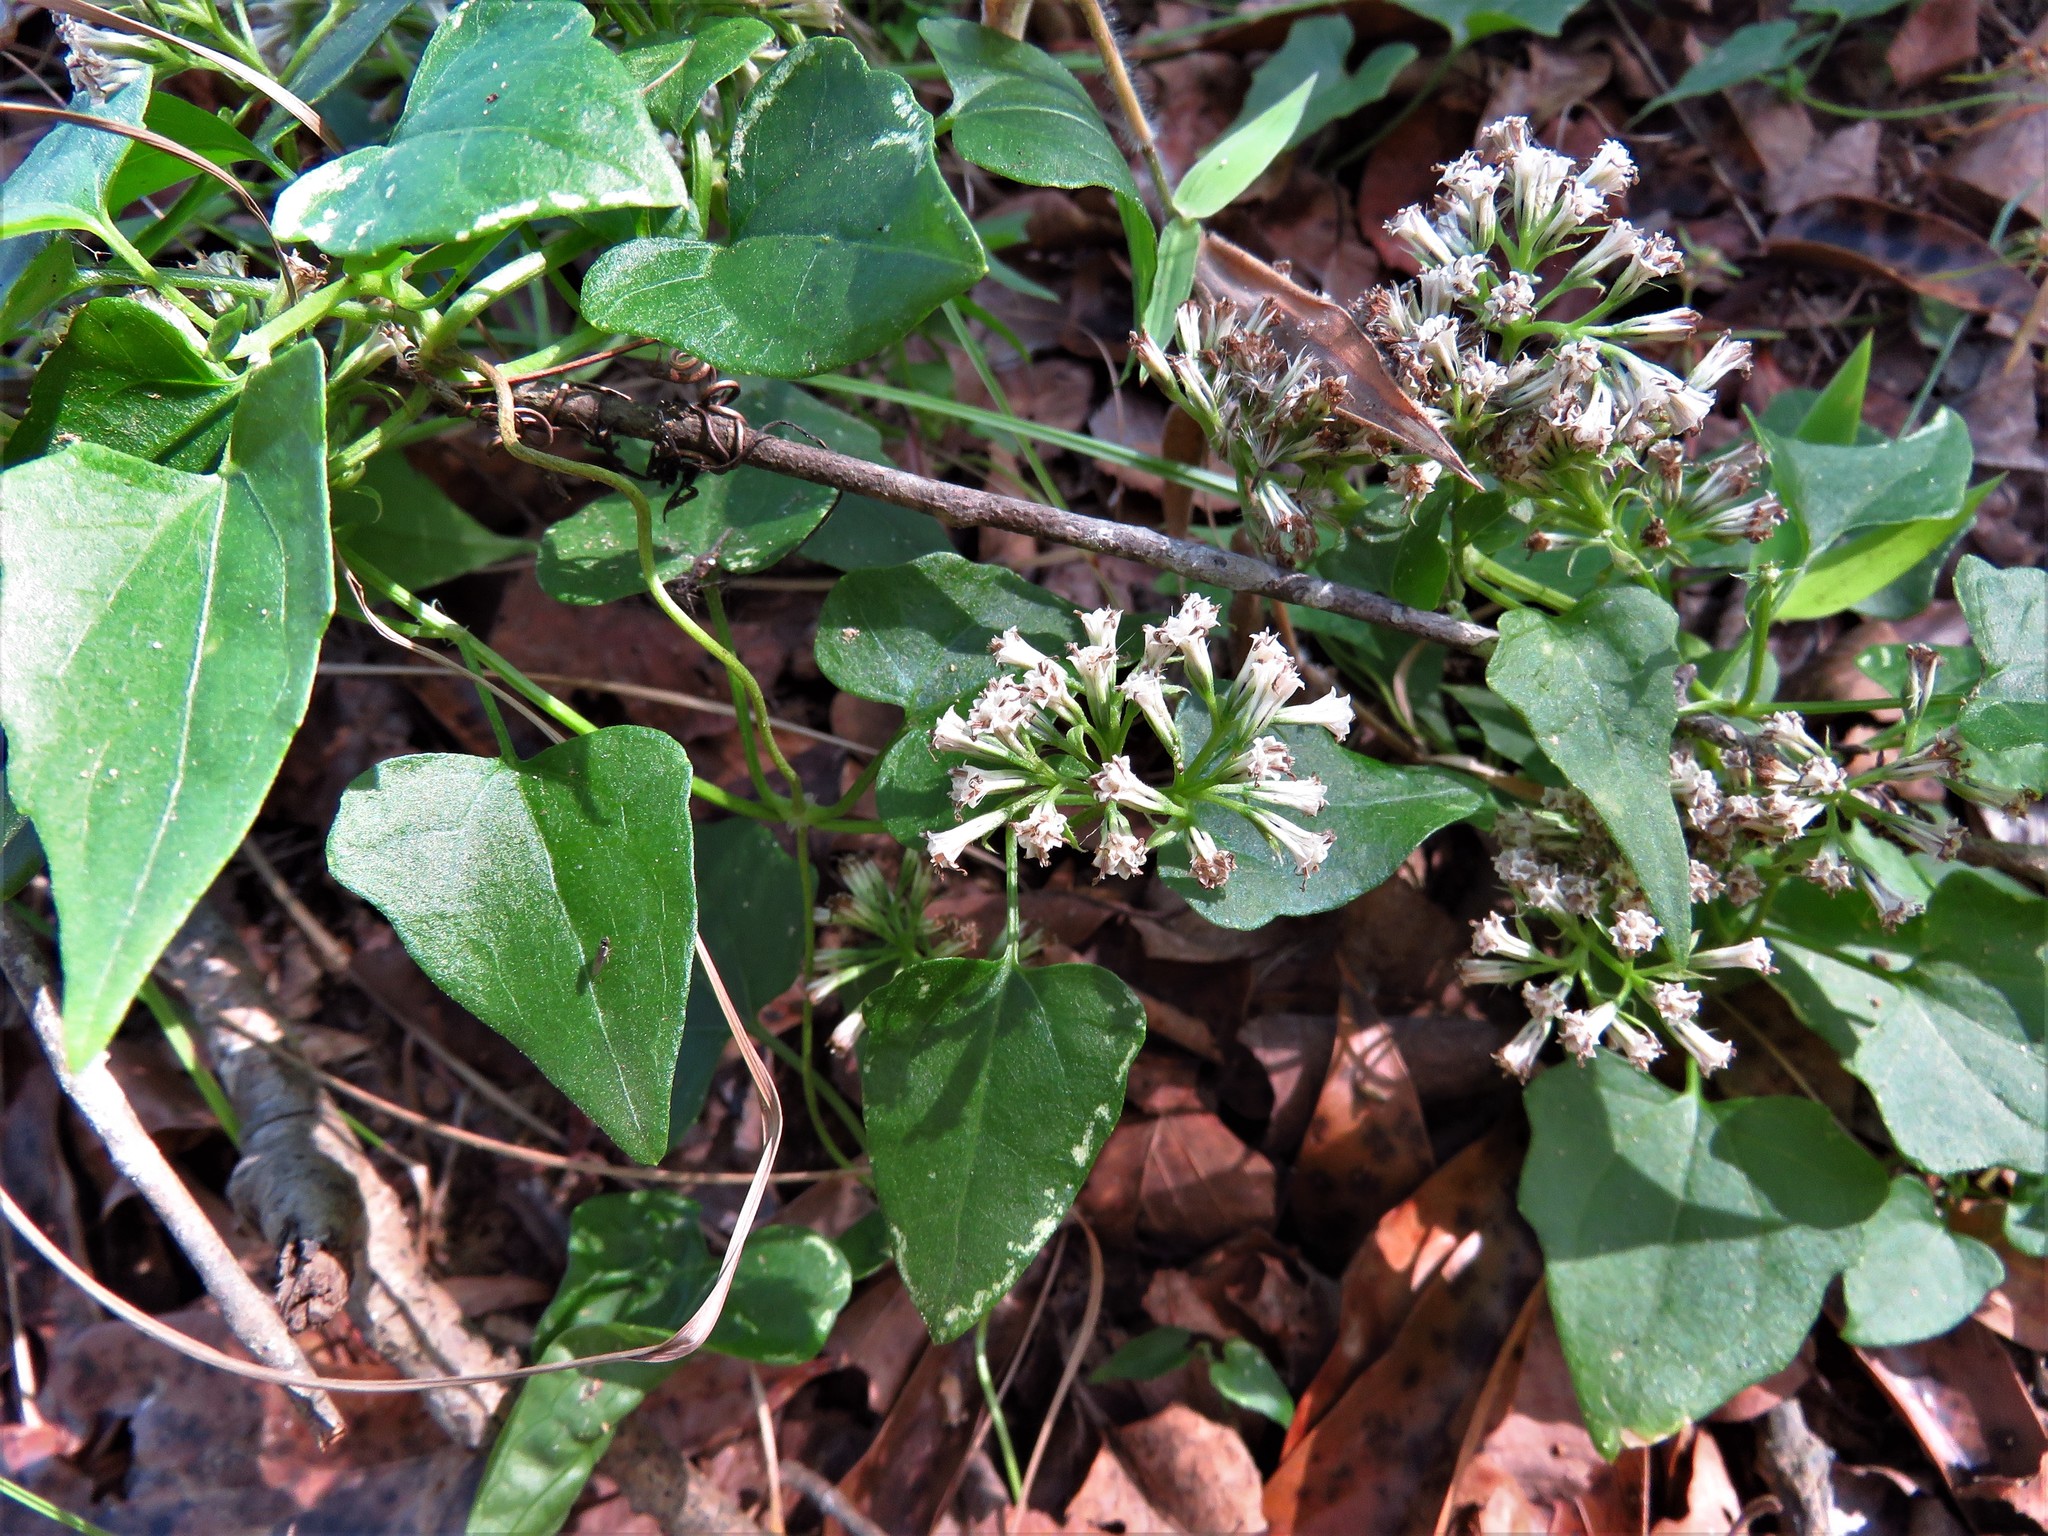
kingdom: Plantae
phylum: Tracheophyta
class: Magnoliopsida
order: Asterales
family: Asteraceae
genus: Mikania
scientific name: Mikania scandens
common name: Climbing hempvine
